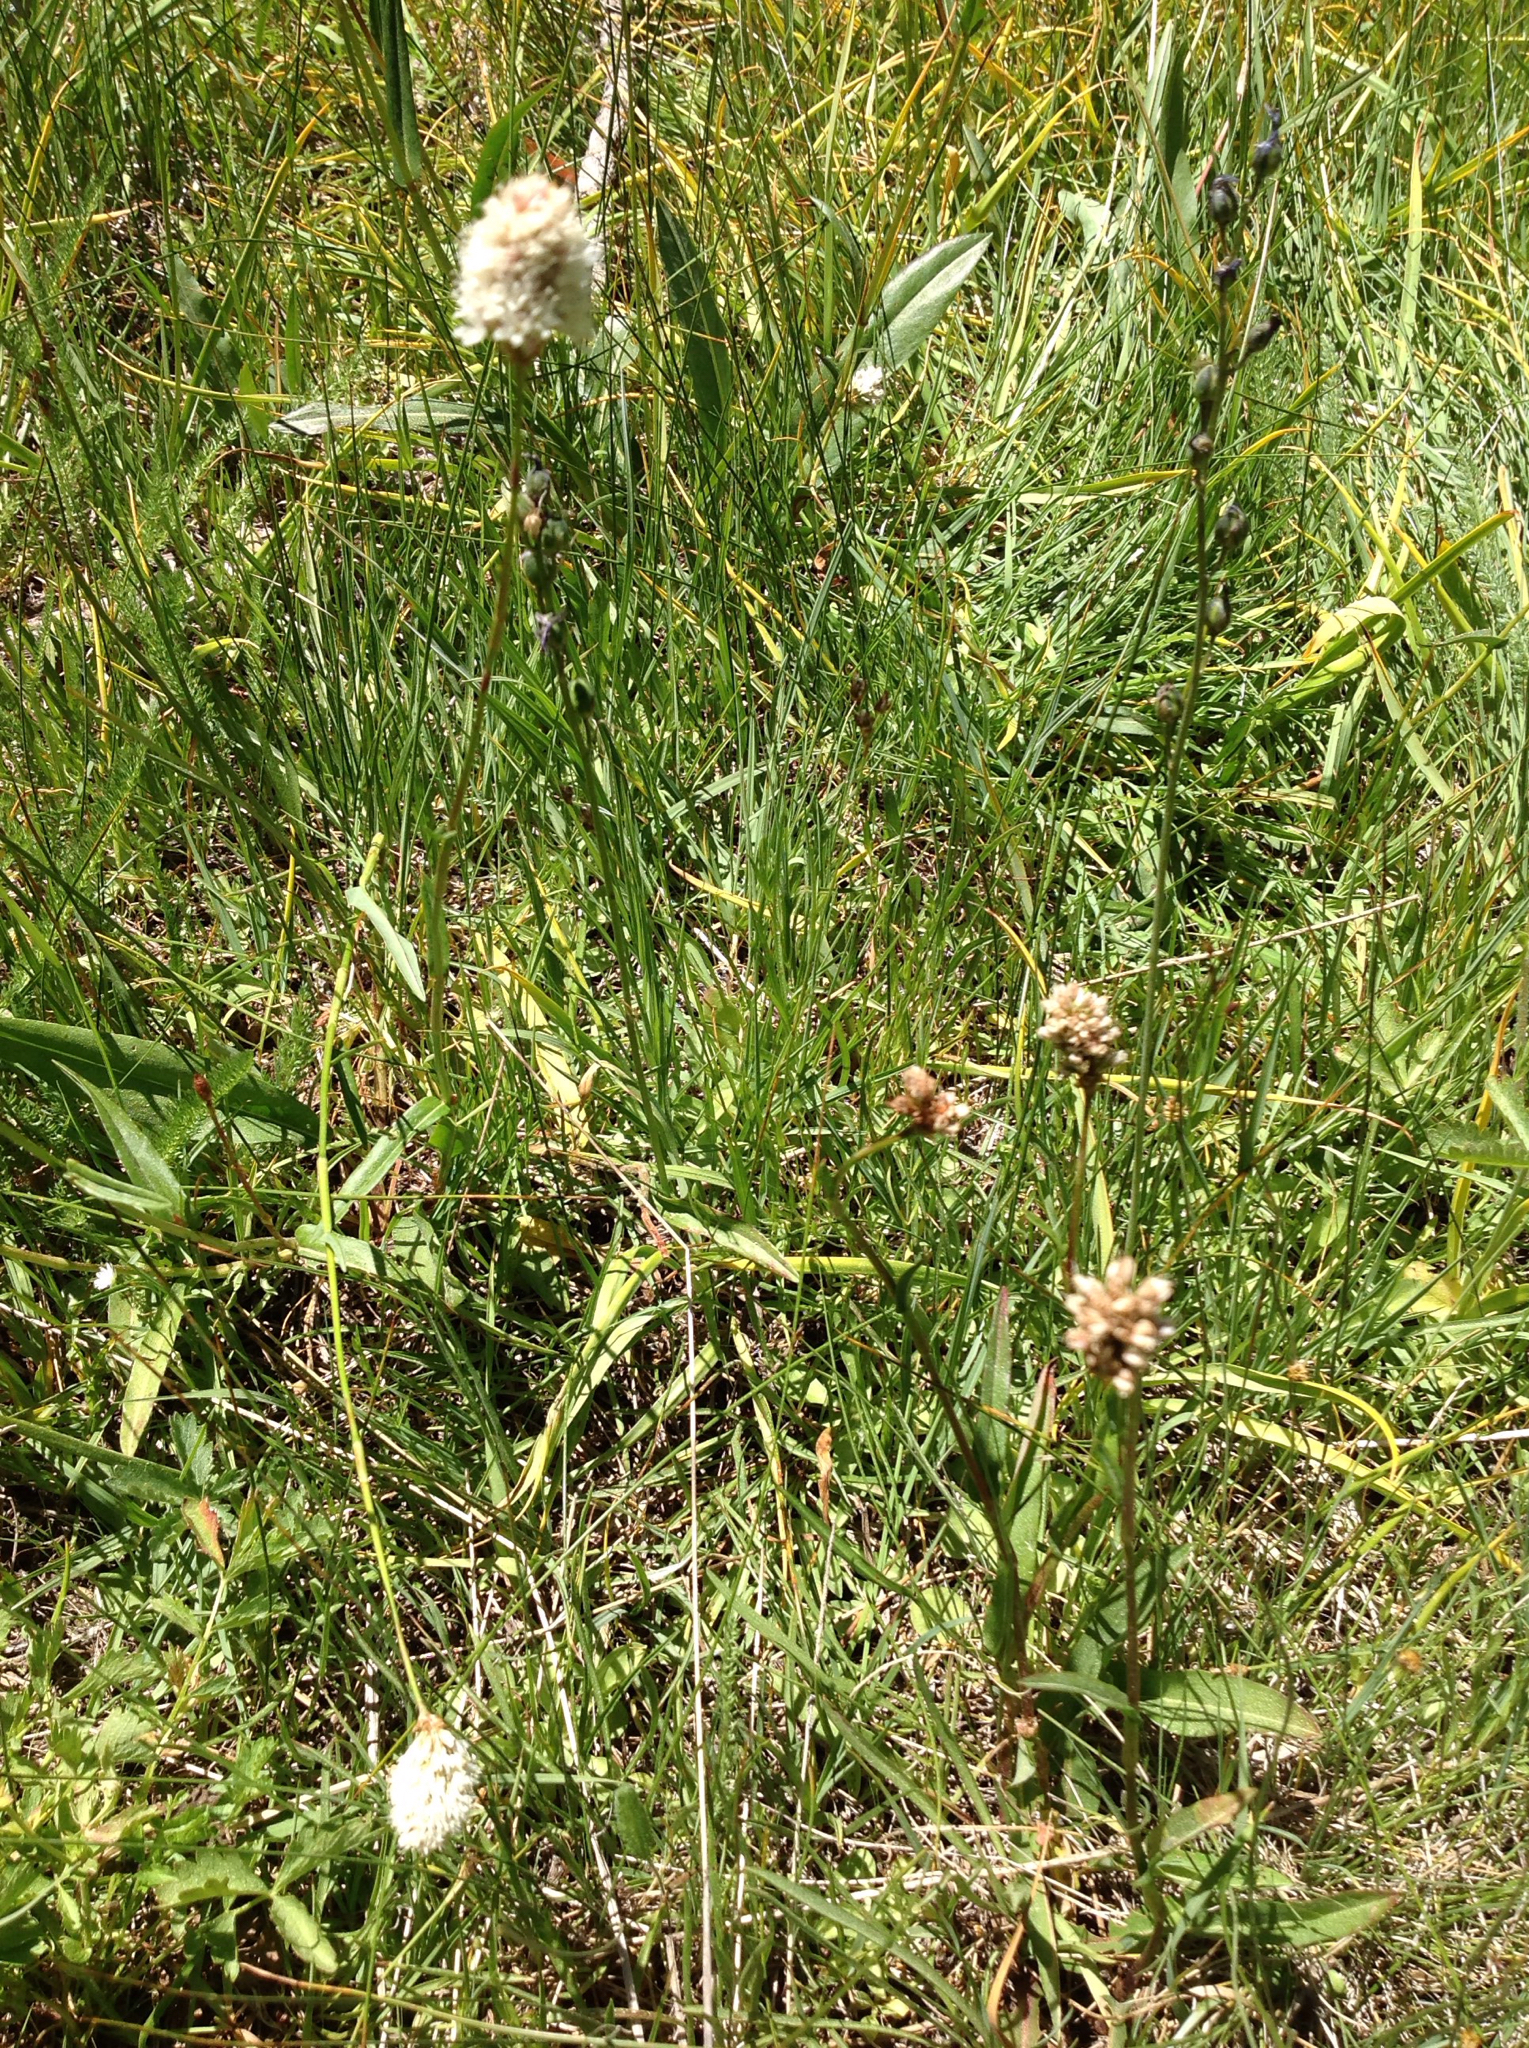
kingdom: Plantae
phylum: Tracheophyta
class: Magnoliopsida
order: Caryophyllales
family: Polygonaceae
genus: Bistorta
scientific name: Bistorta bistortoides
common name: American bistort
